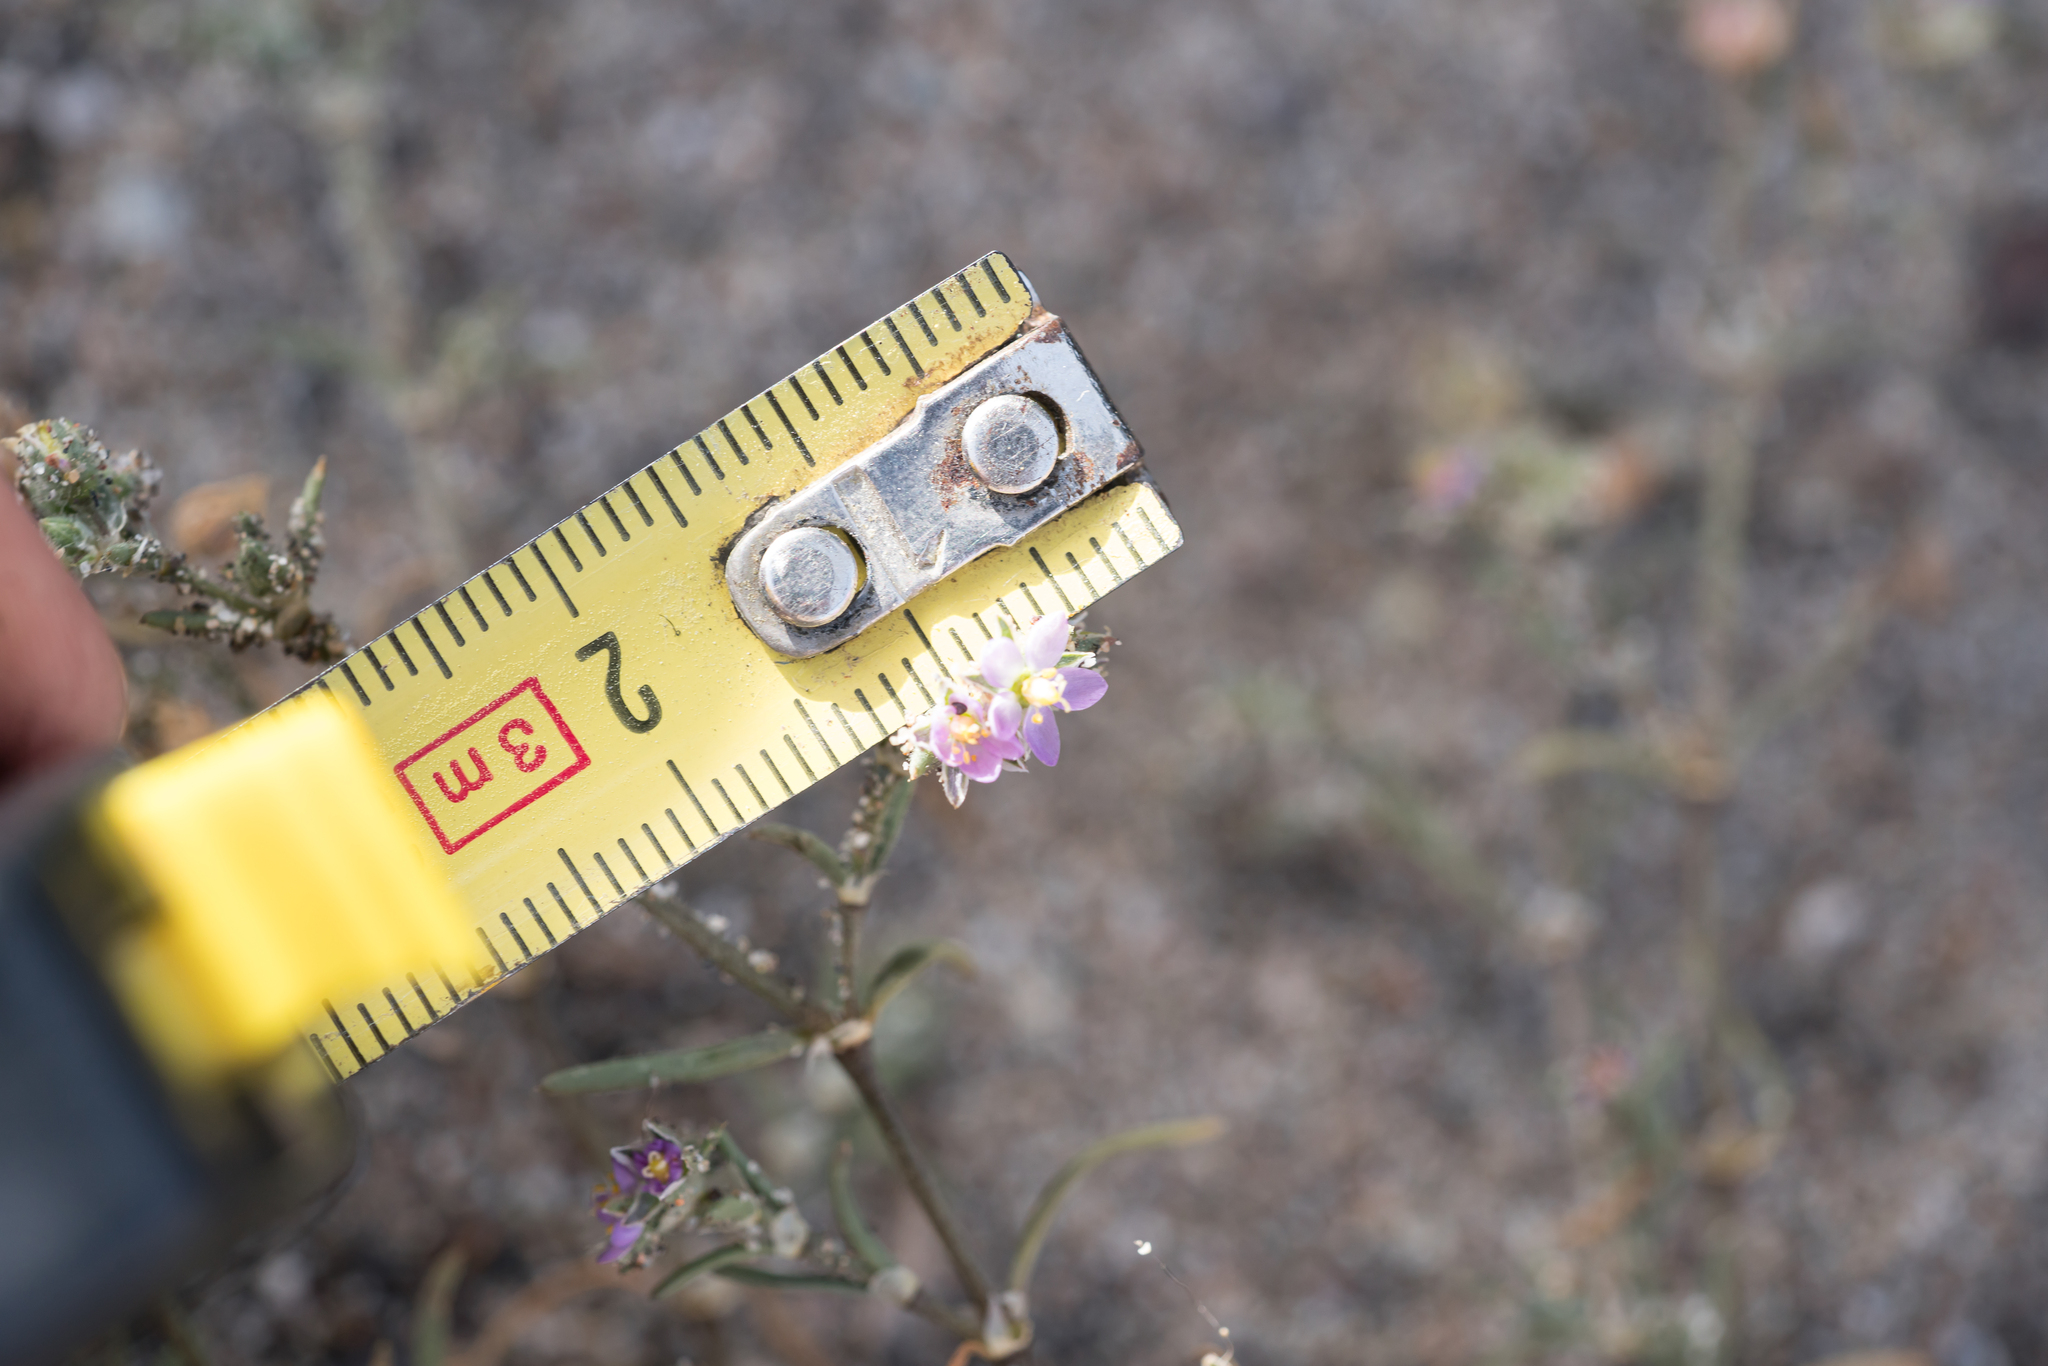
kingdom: Plantae
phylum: Tracheophyta
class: Magnoliopsida
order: Caryophyllales
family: Caryophyllaceae
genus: Spergularia
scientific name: Spergularia heldreichii
